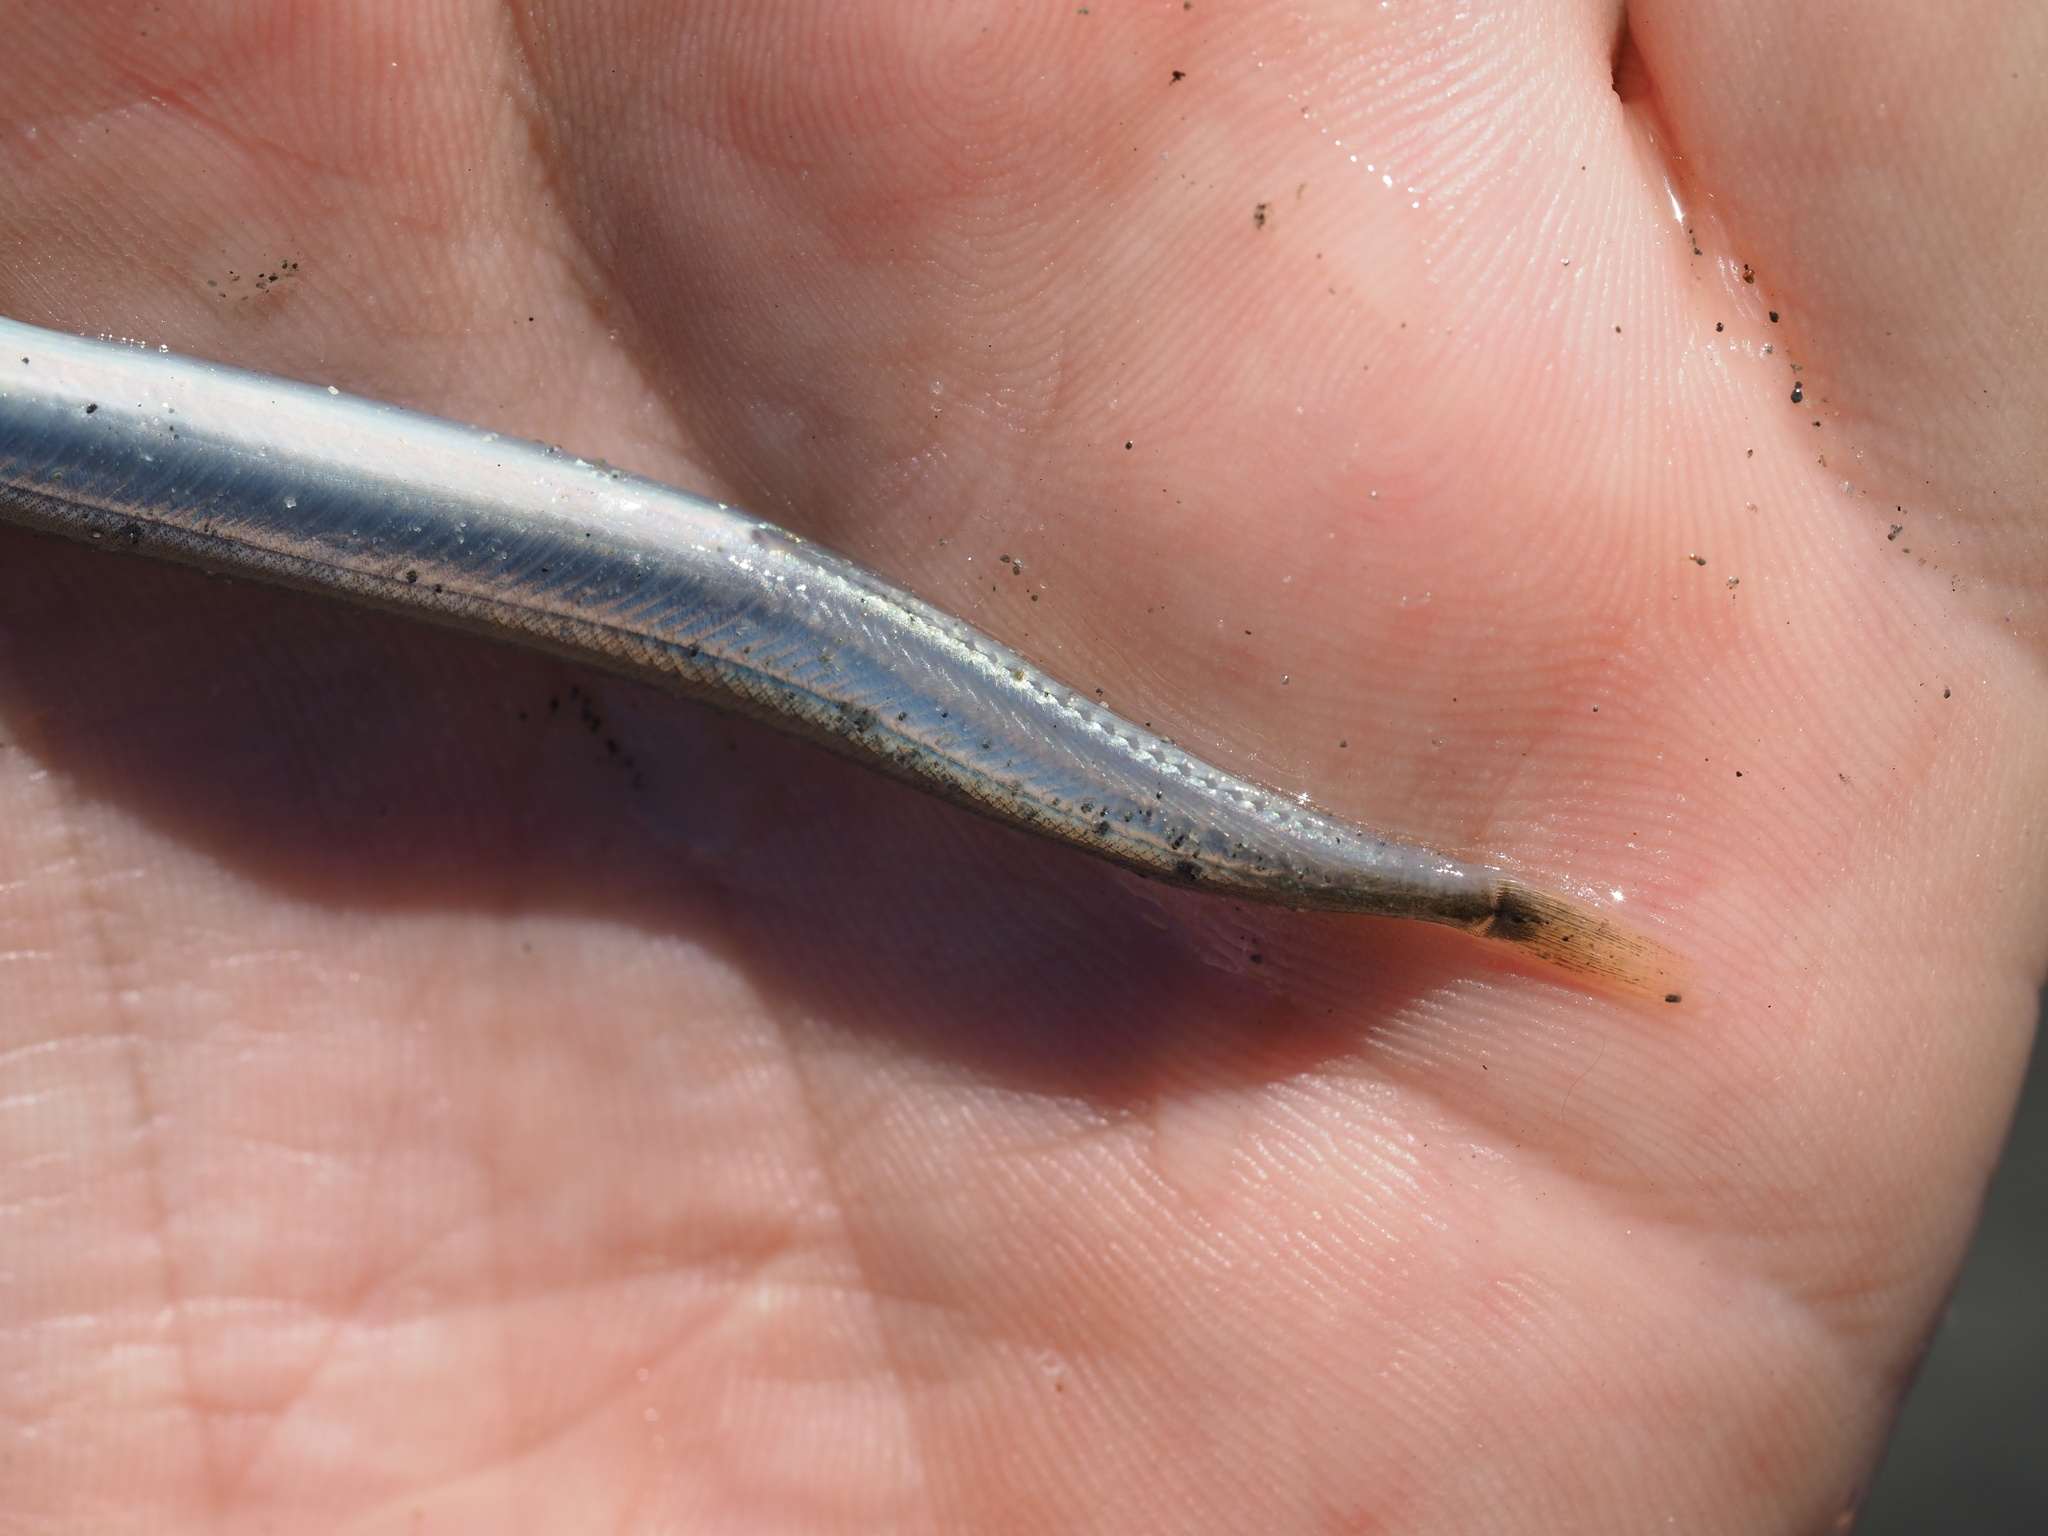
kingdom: Animalia
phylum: Chordata
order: Perciformes
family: Ammodytidae
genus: Ammodytes
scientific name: Ammodytes personatus
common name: Japanese sand lance
